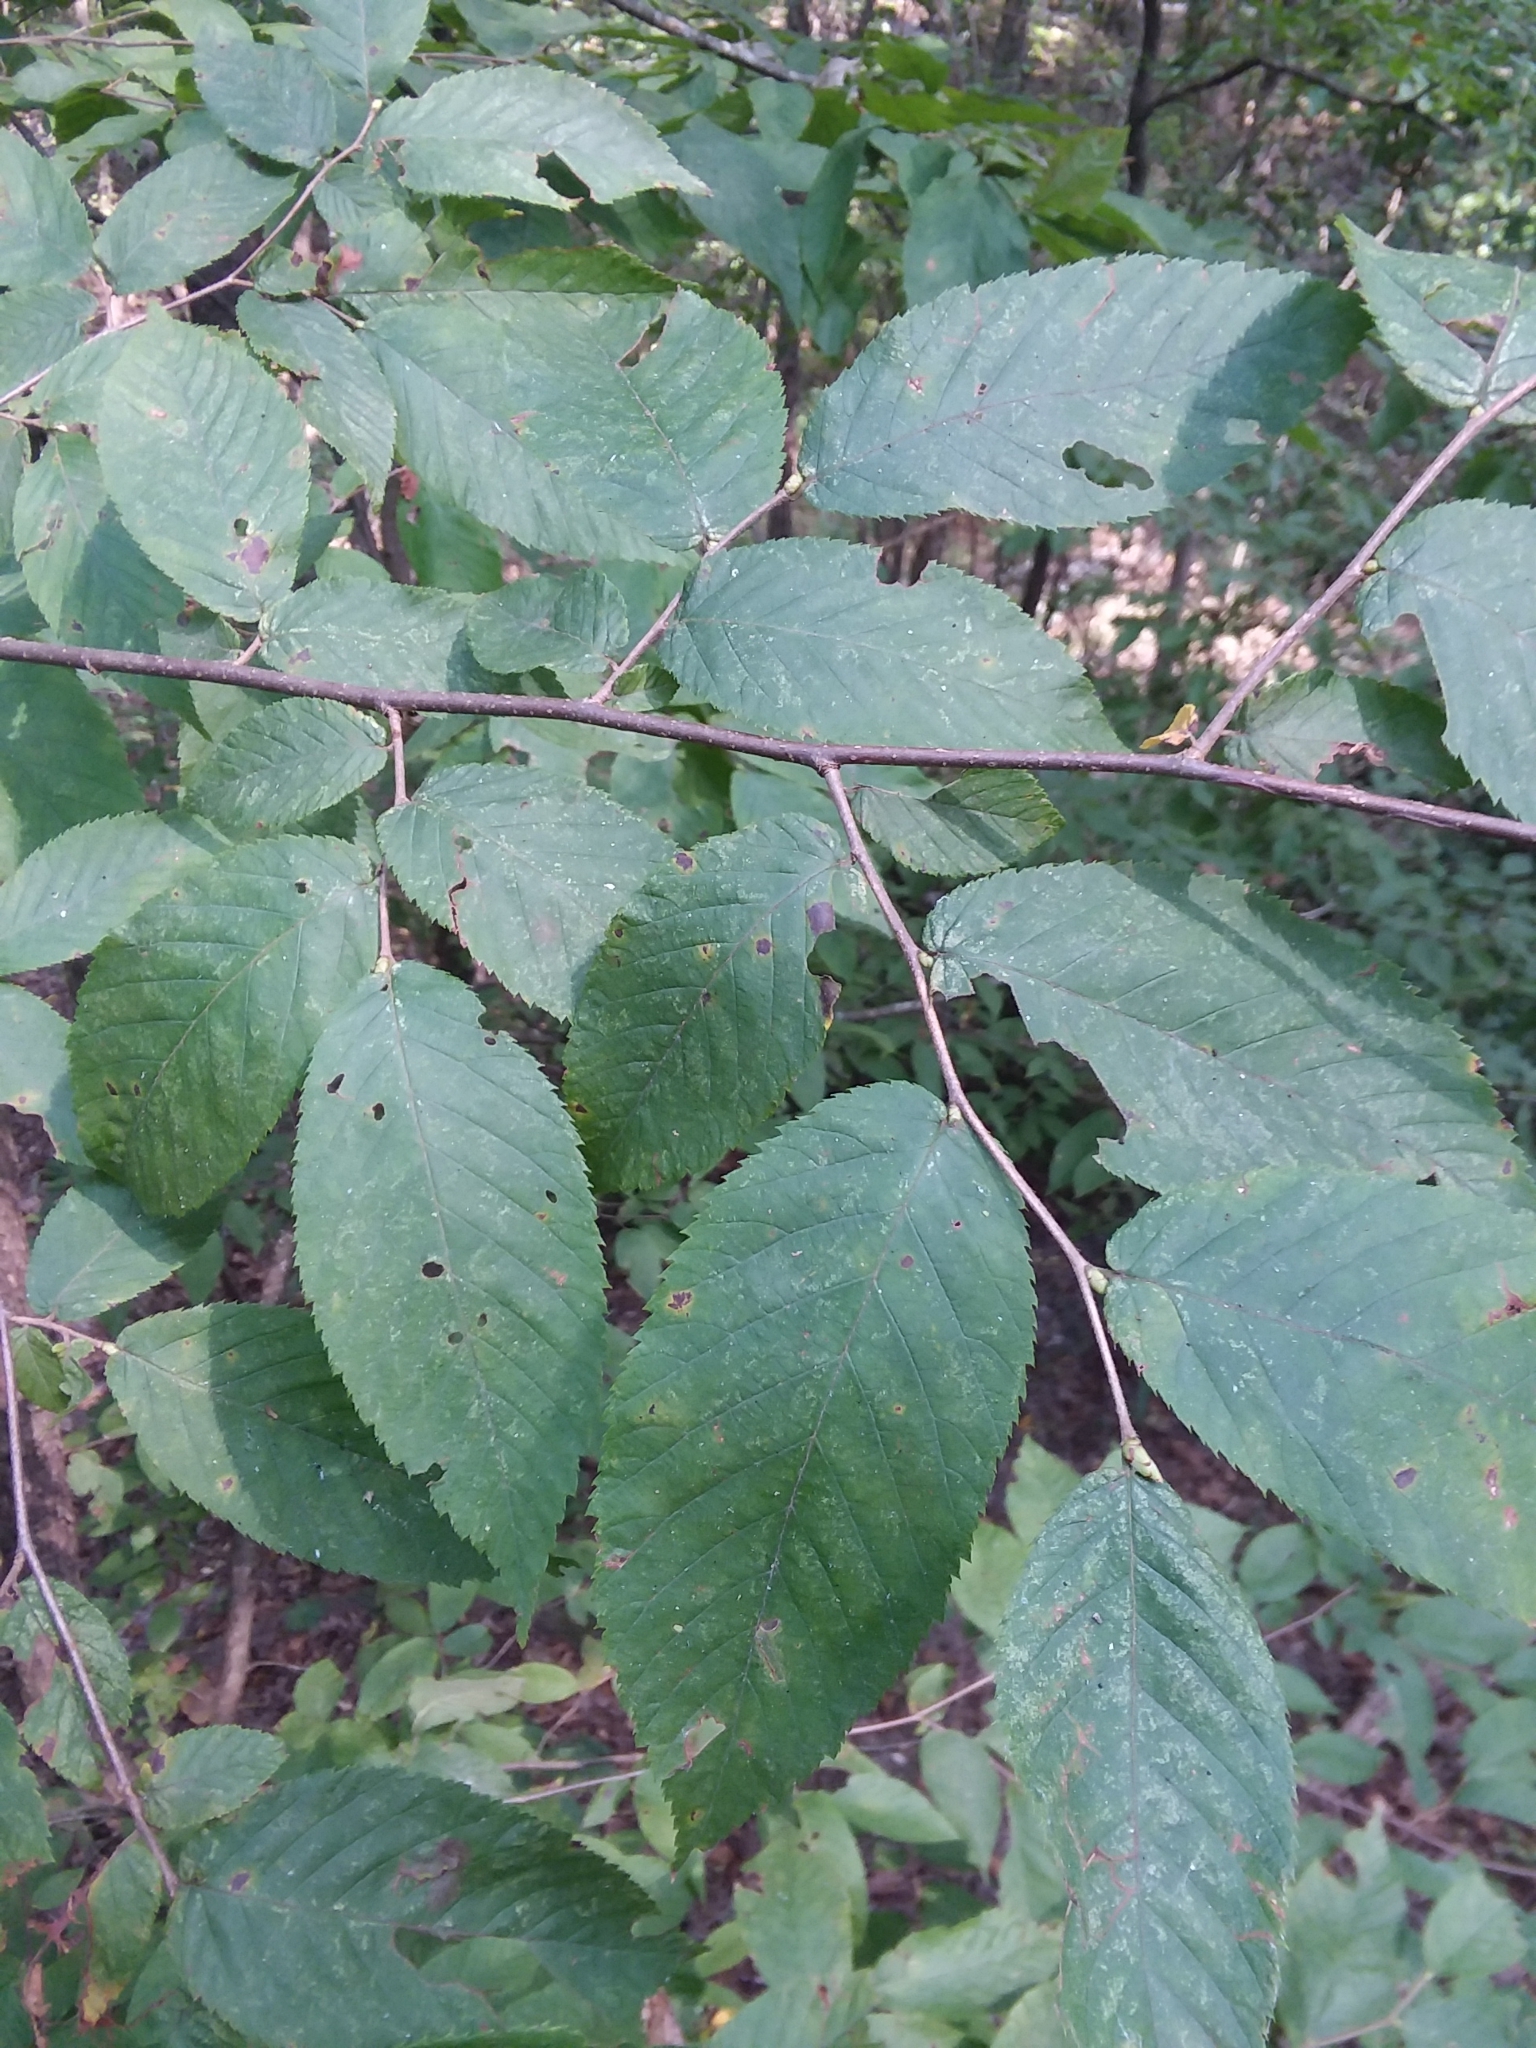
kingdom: Plantae
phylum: Tracheophyta
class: Magnoliopsida
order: Fagales
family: Betulaceae
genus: Ostrya
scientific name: Ostrya virginiana
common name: Ironwood
